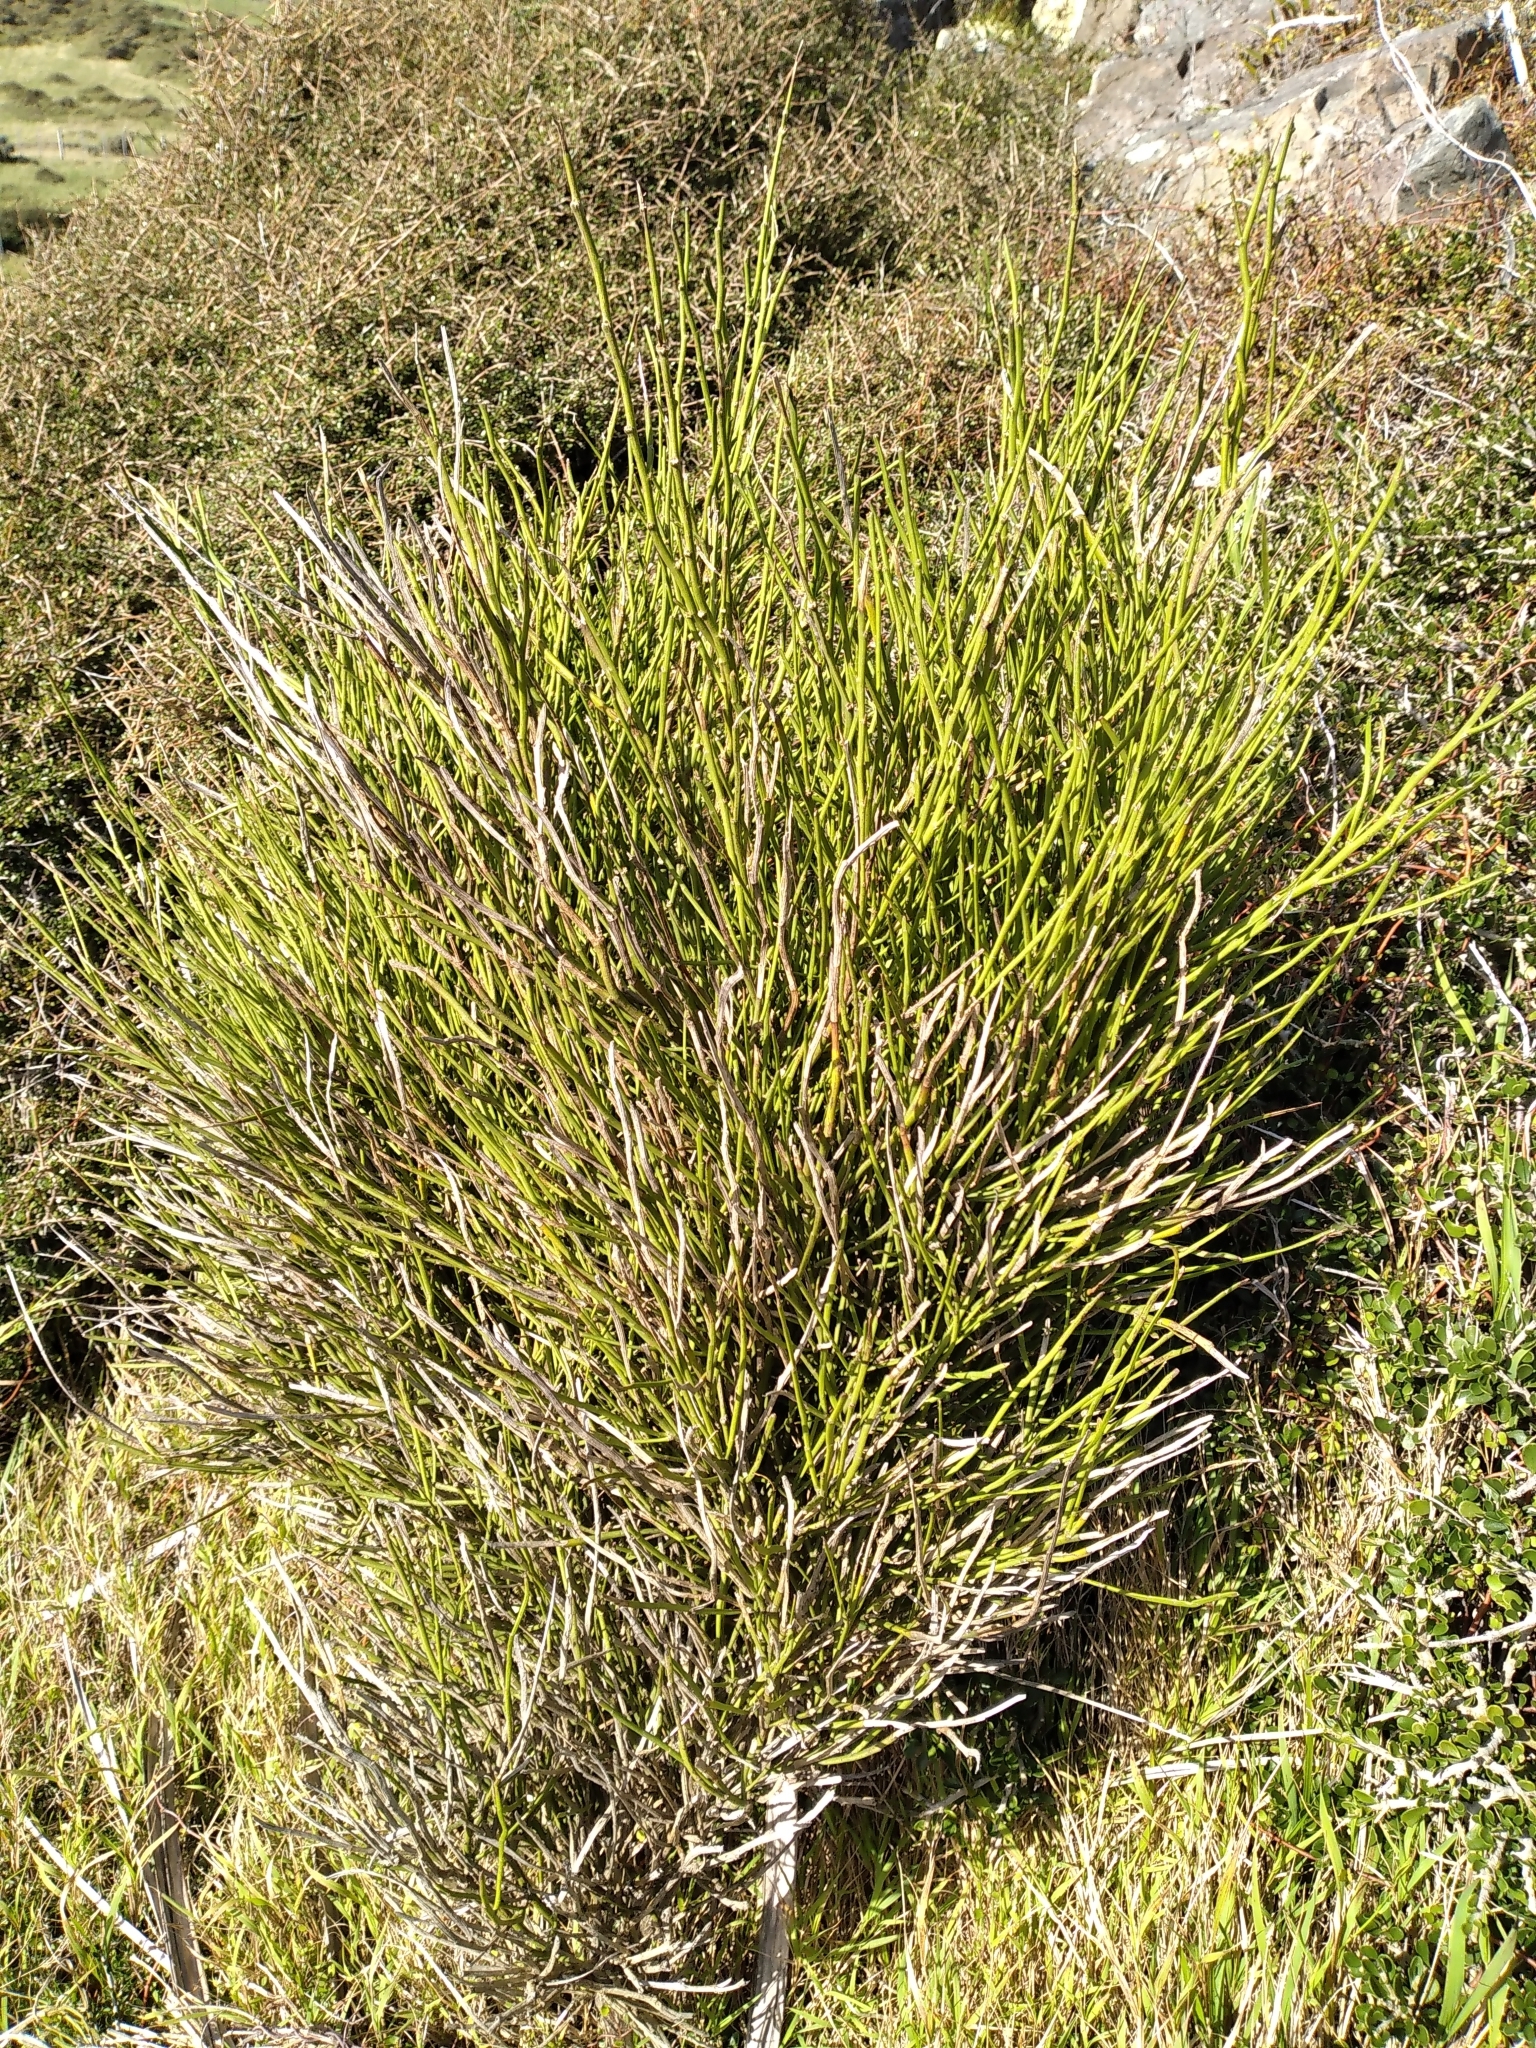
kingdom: Plantae
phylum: Tracheophyta
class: Magnoliopsida
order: Fabales
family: Fabaceae
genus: Carmichaelia
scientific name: Carmichaelia australis
